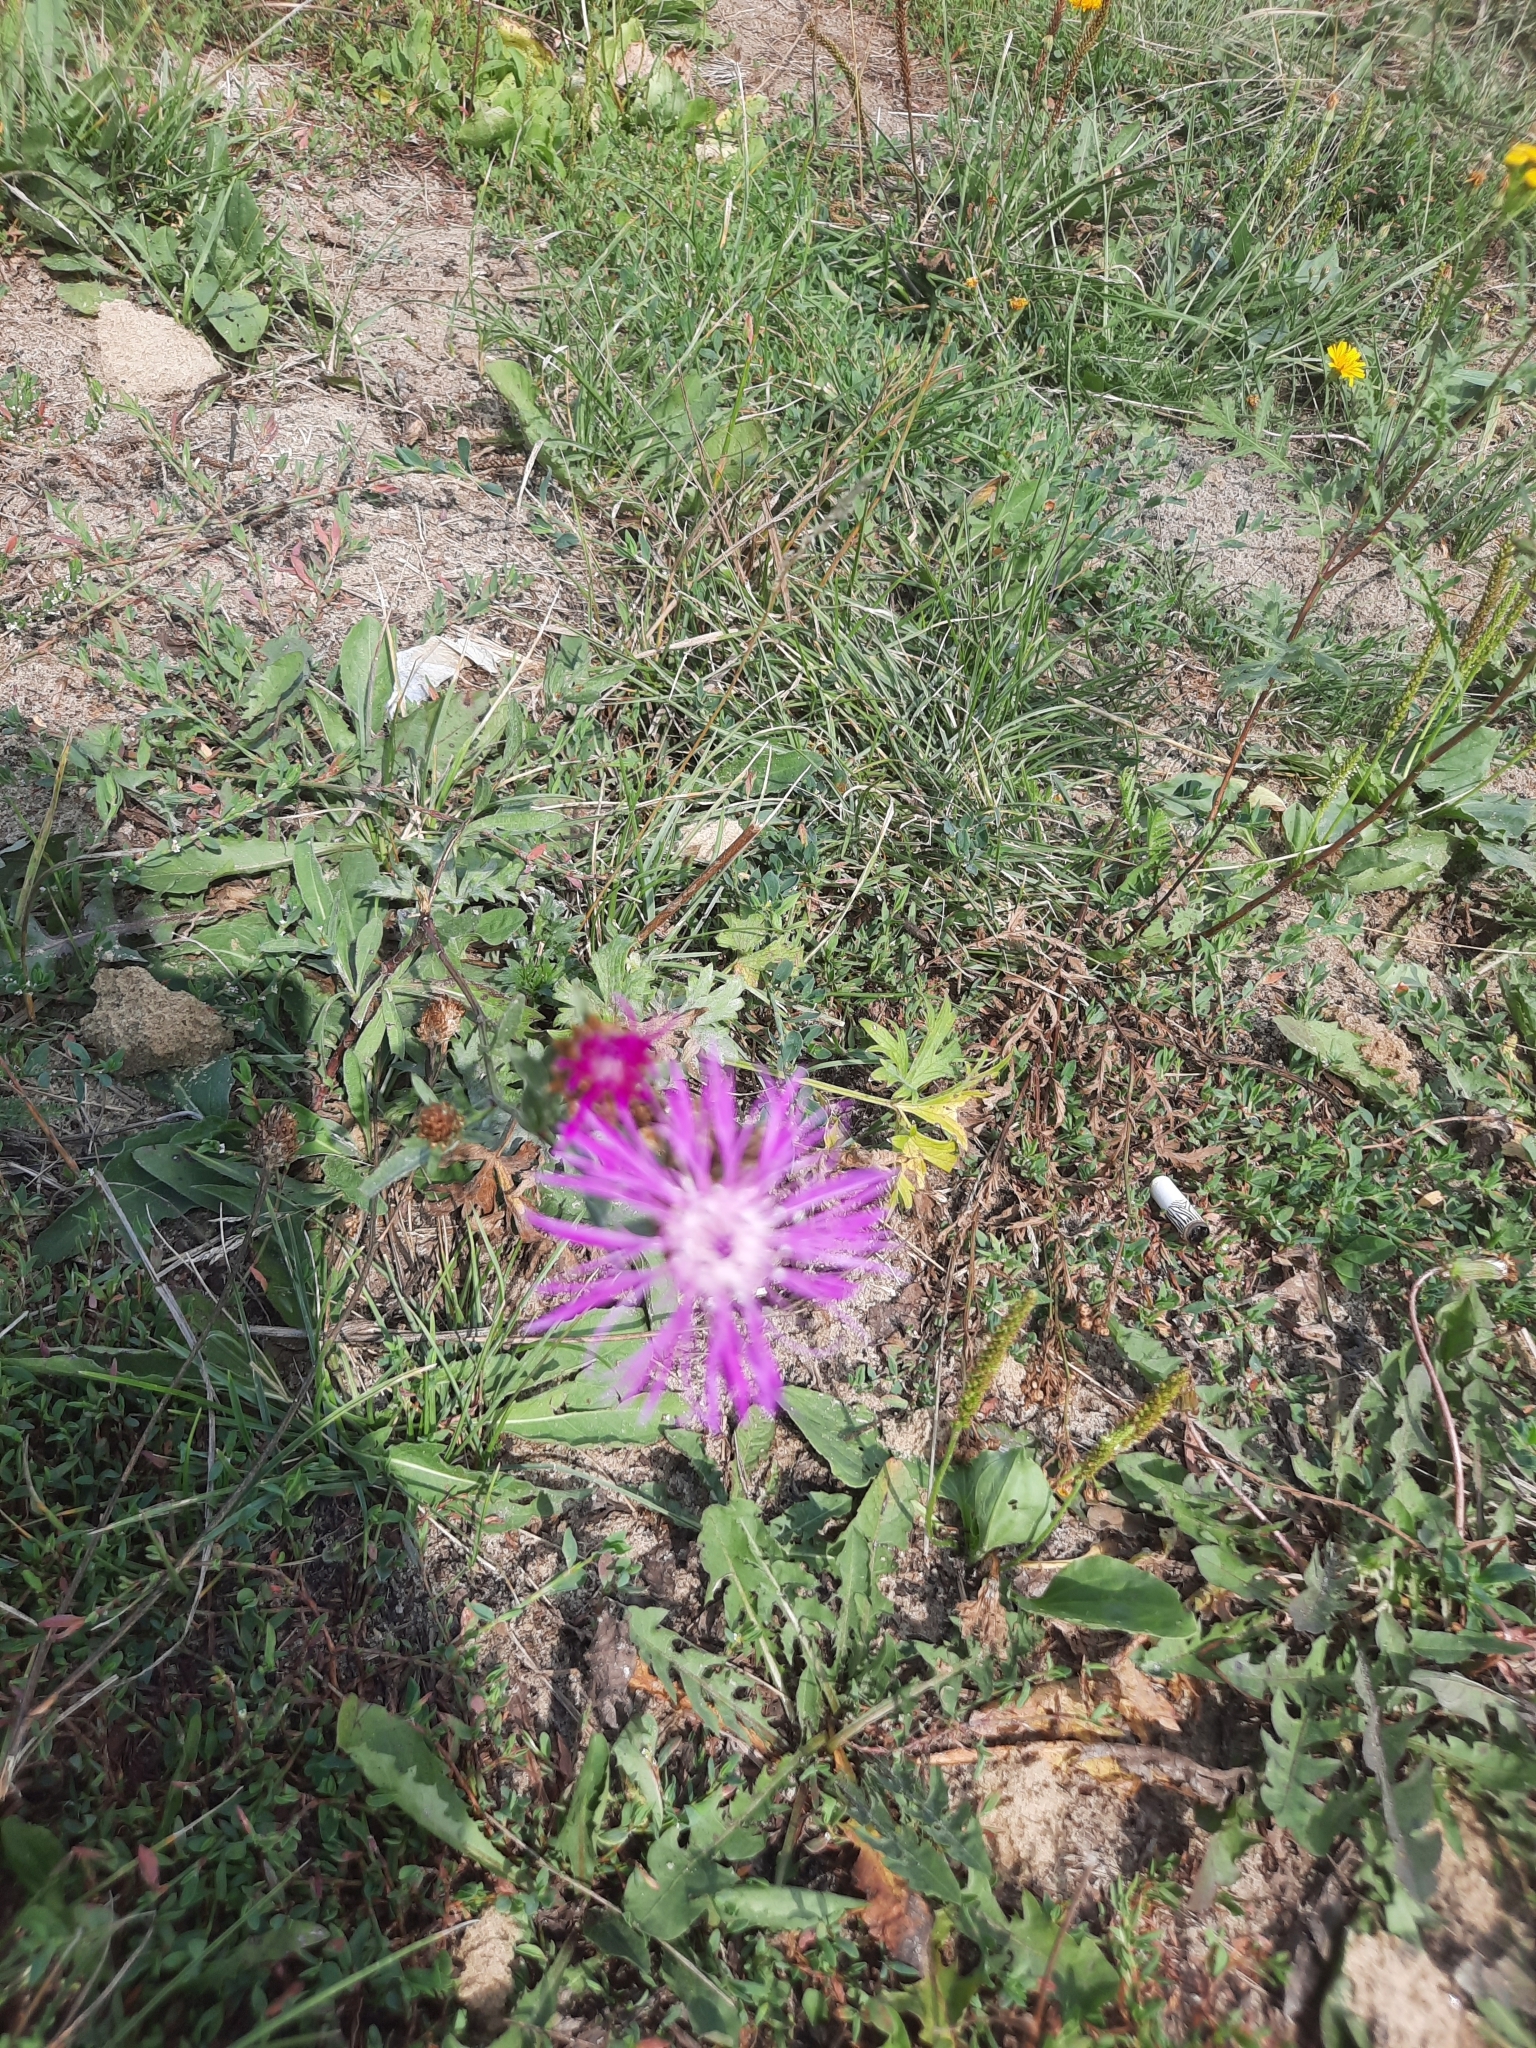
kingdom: Plantae
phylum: Tracheophyta
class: Magnoliopsida
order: Asterales
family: Asteraceae
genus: Centaurea
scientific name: Centaurea jacea
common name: Brown knapweed
